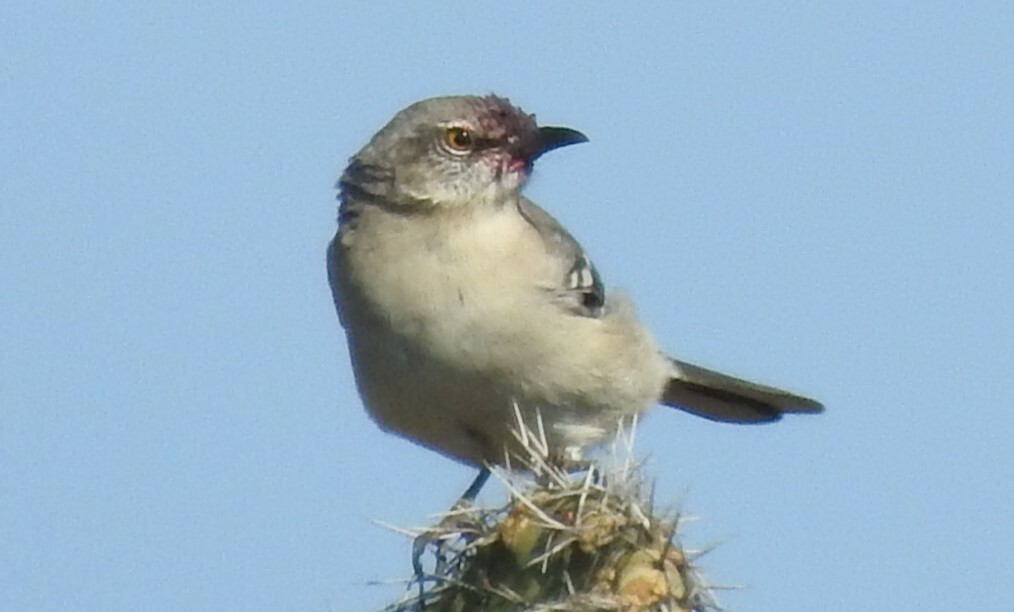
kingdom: Animalia
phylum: Chordata
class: Aves
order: Passeriformes
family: Mimidae
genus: Mimus
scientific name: Mimus polyglottos
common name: Northern mockingbird
